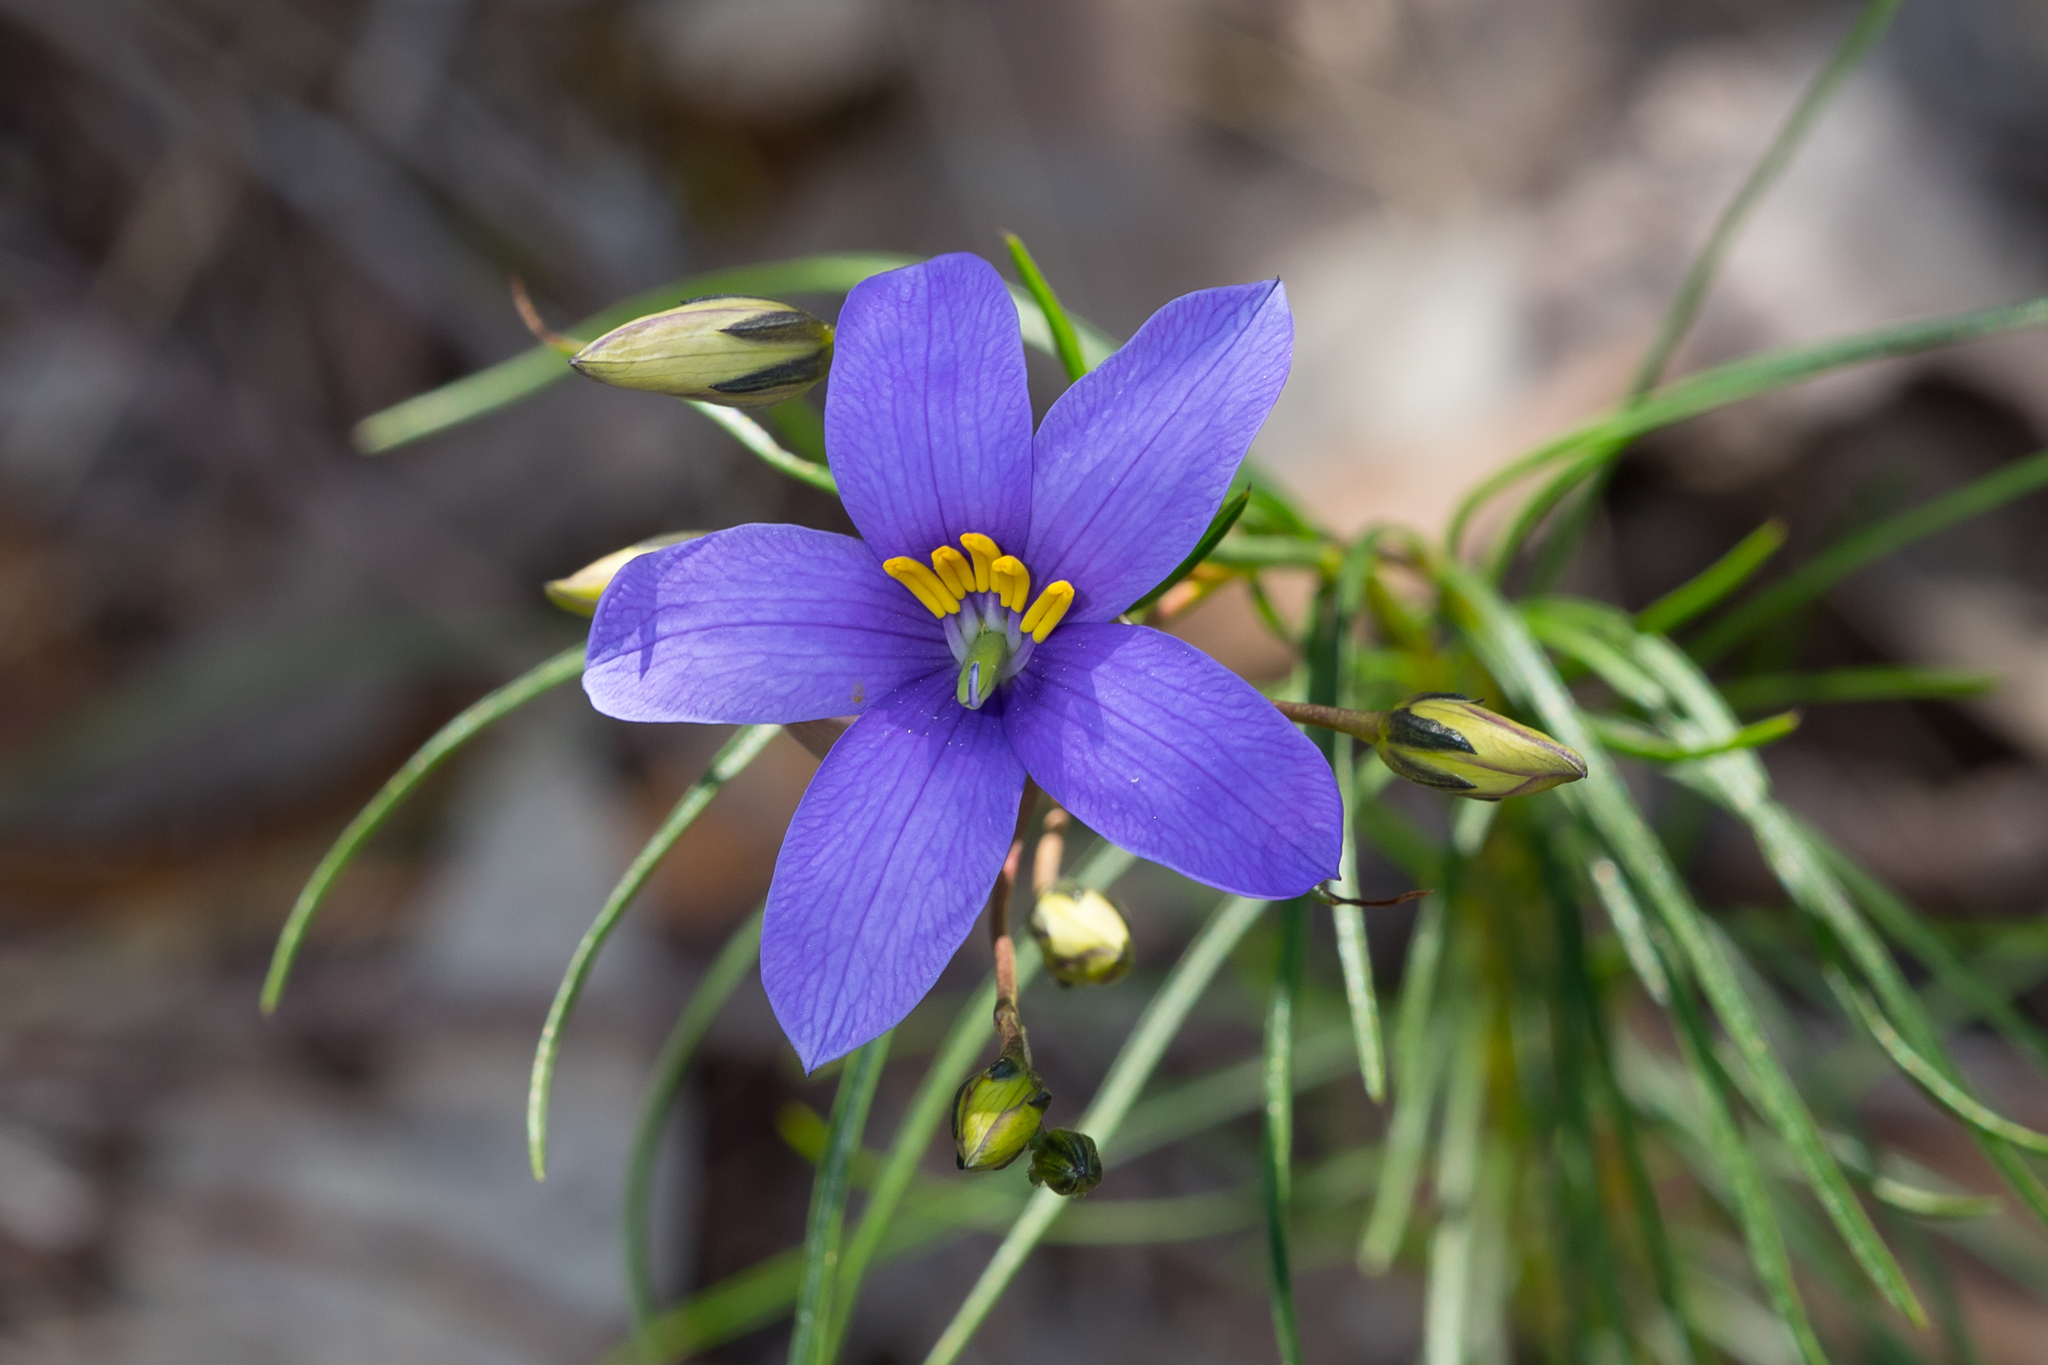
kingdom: Plantae
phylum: Tracheophyta
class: Magnoliopsida
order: Apiales
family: Pittosporaceae
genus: Cheiranthera
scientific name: Cheiranthera alternifolia
